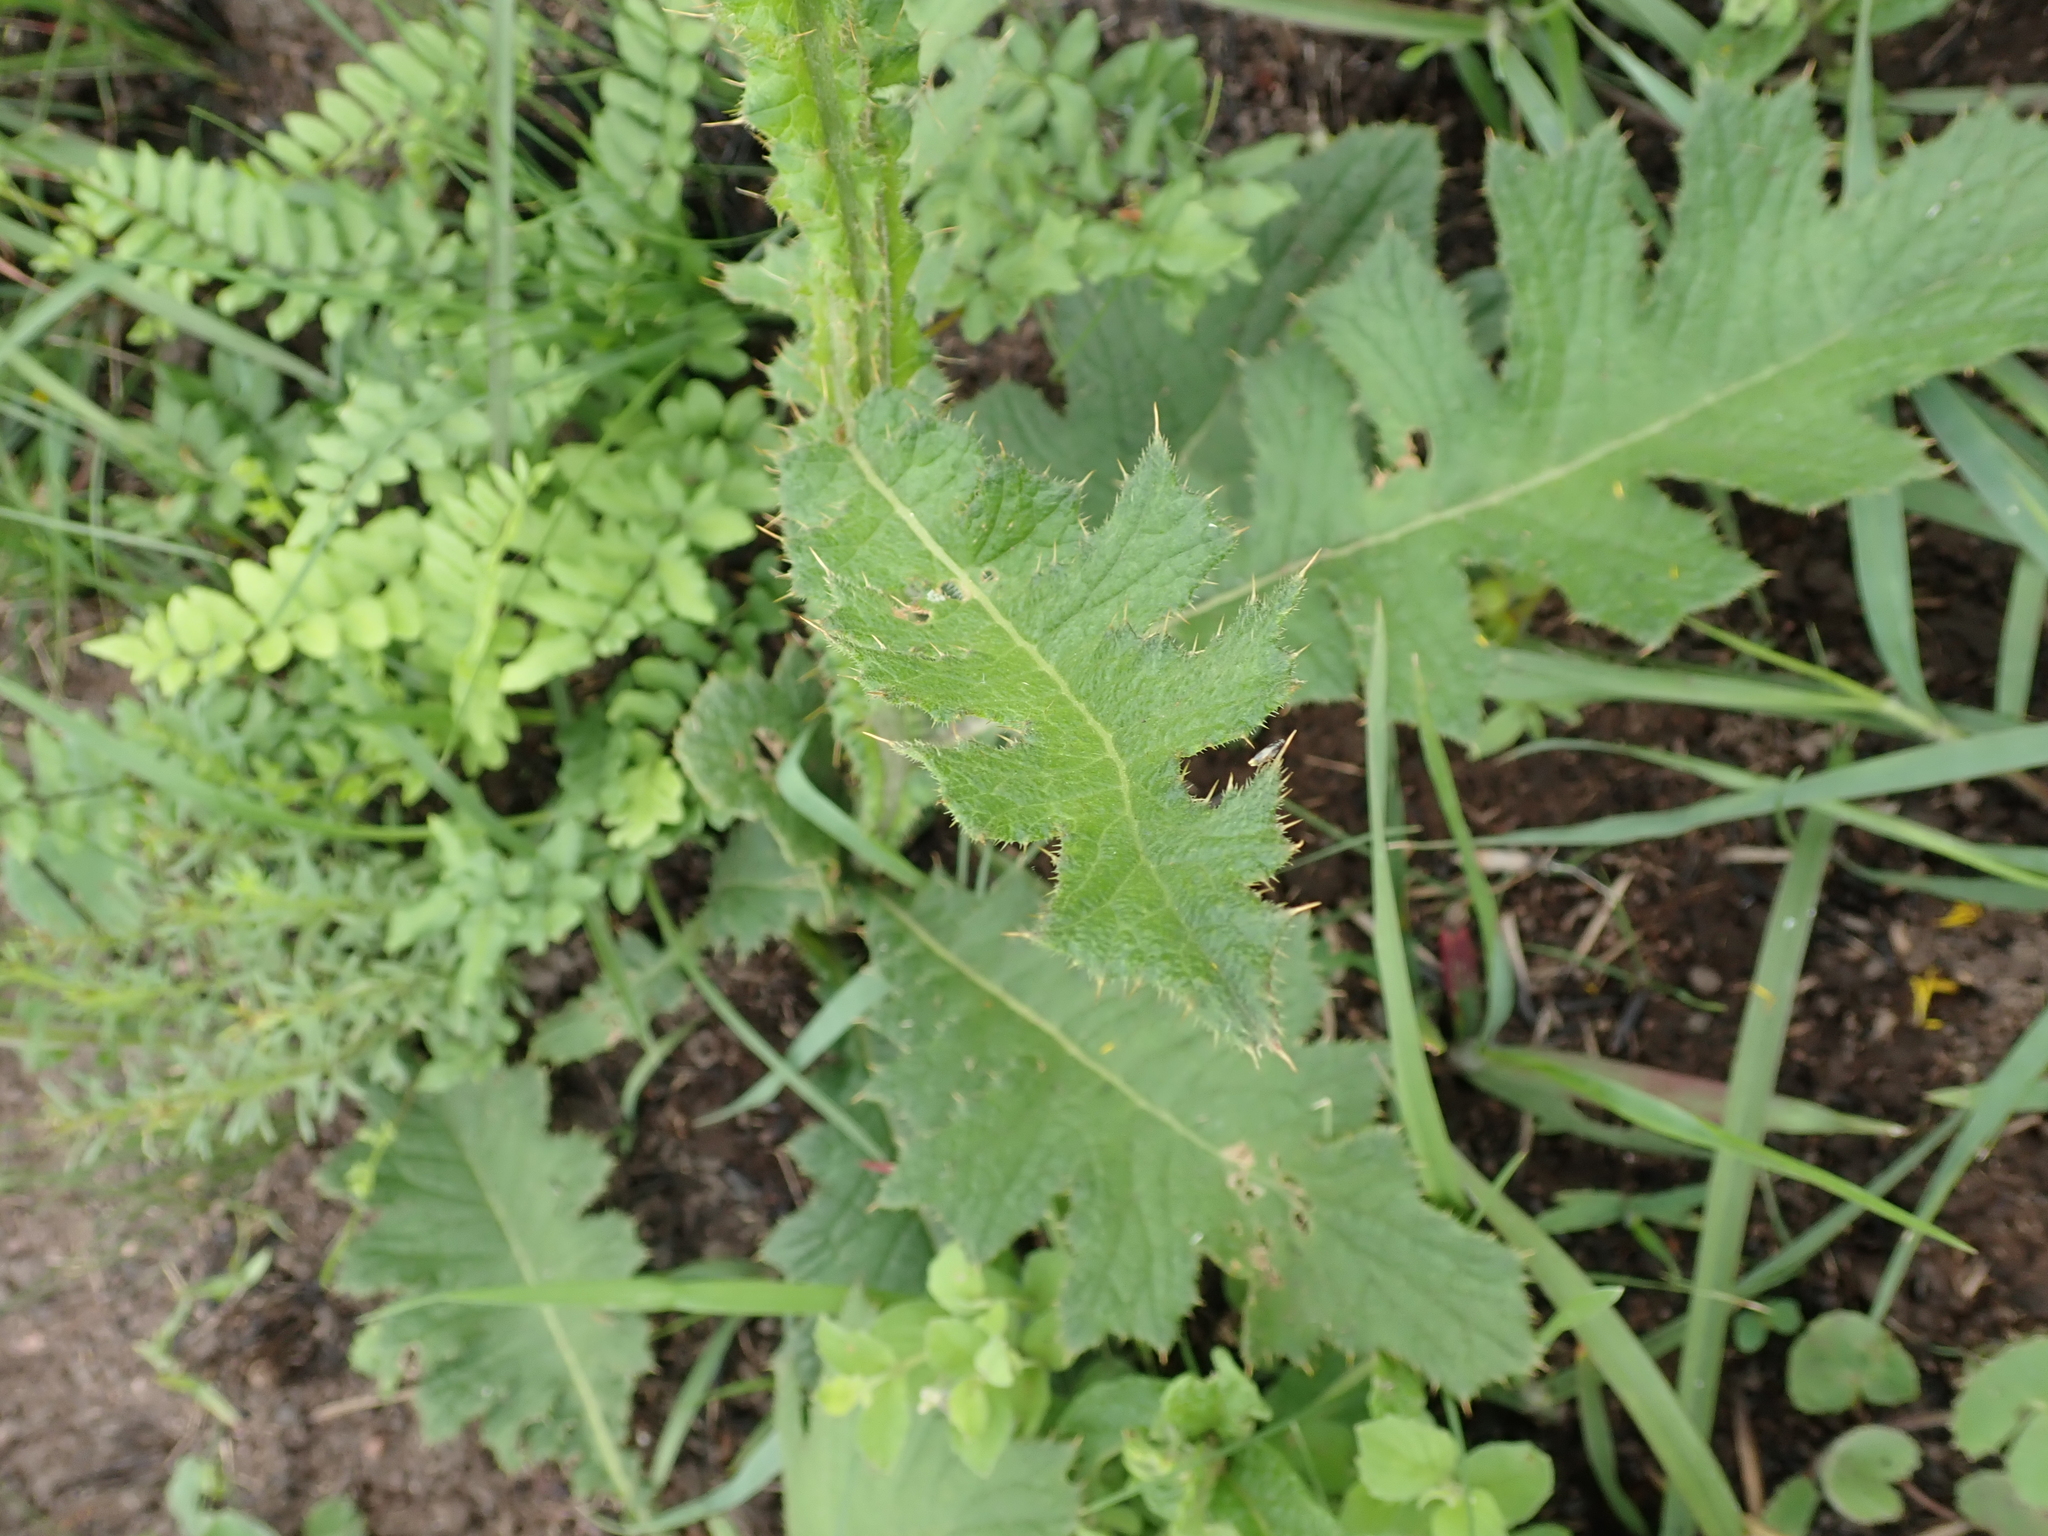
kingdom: Plantae
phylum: Tracheophyta
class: Magnoliopsida
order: Asterales
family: Asteraceae
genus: Berkheya
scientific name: Berkheya umbellata
